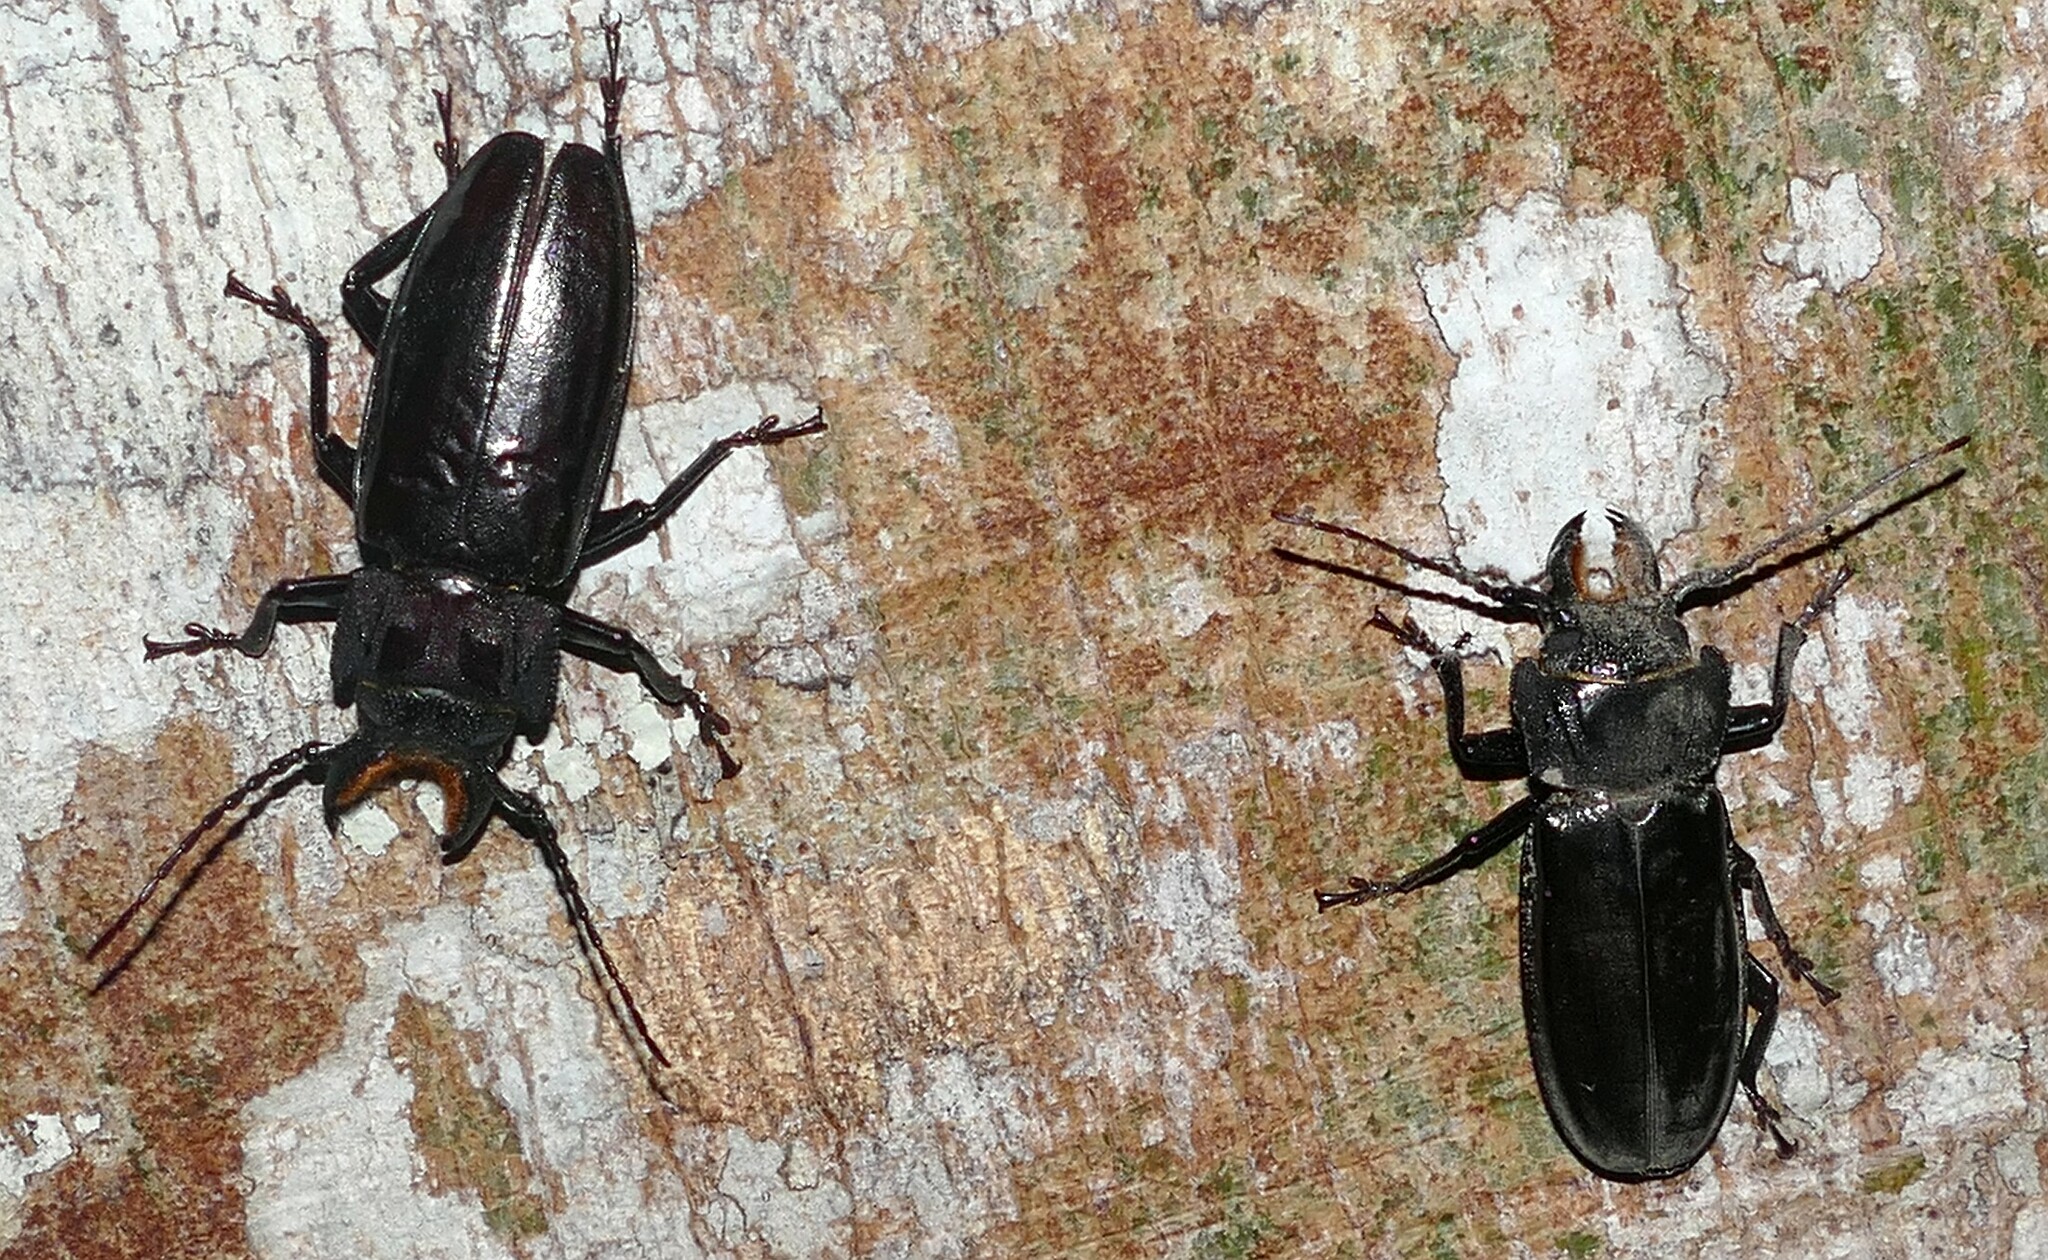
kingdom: Animalia
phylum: Arthropoda
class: Insecta
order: Coleoptera
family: Cerambycidae
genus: Mallodon
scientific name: Mallodon baiulus
